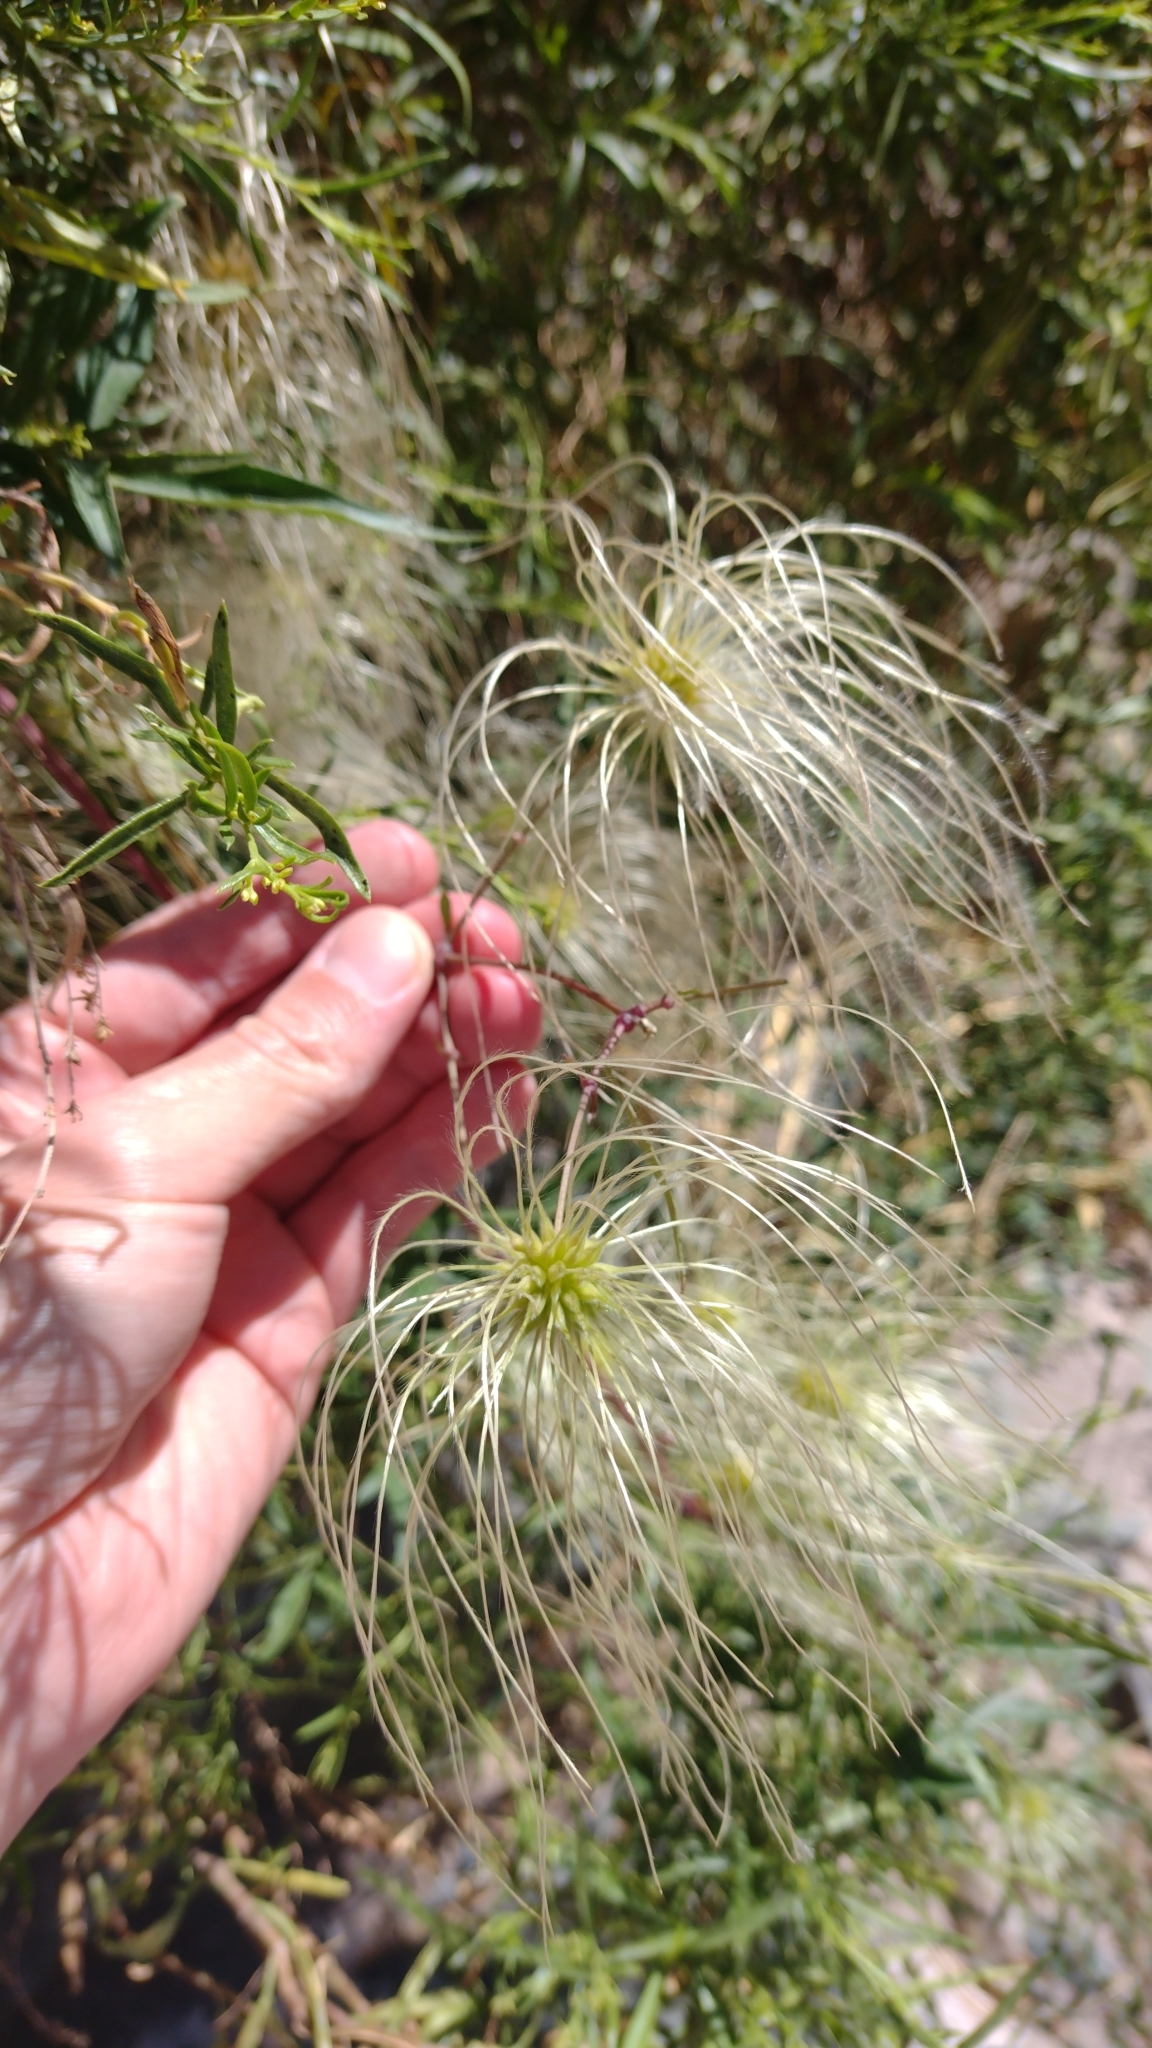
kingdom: Plantae
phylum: Tracheophyta
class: Magnoliopsida
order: Ranunculales
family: Ranunculaceae
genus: Clematis
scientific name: Clematis montevidensis
